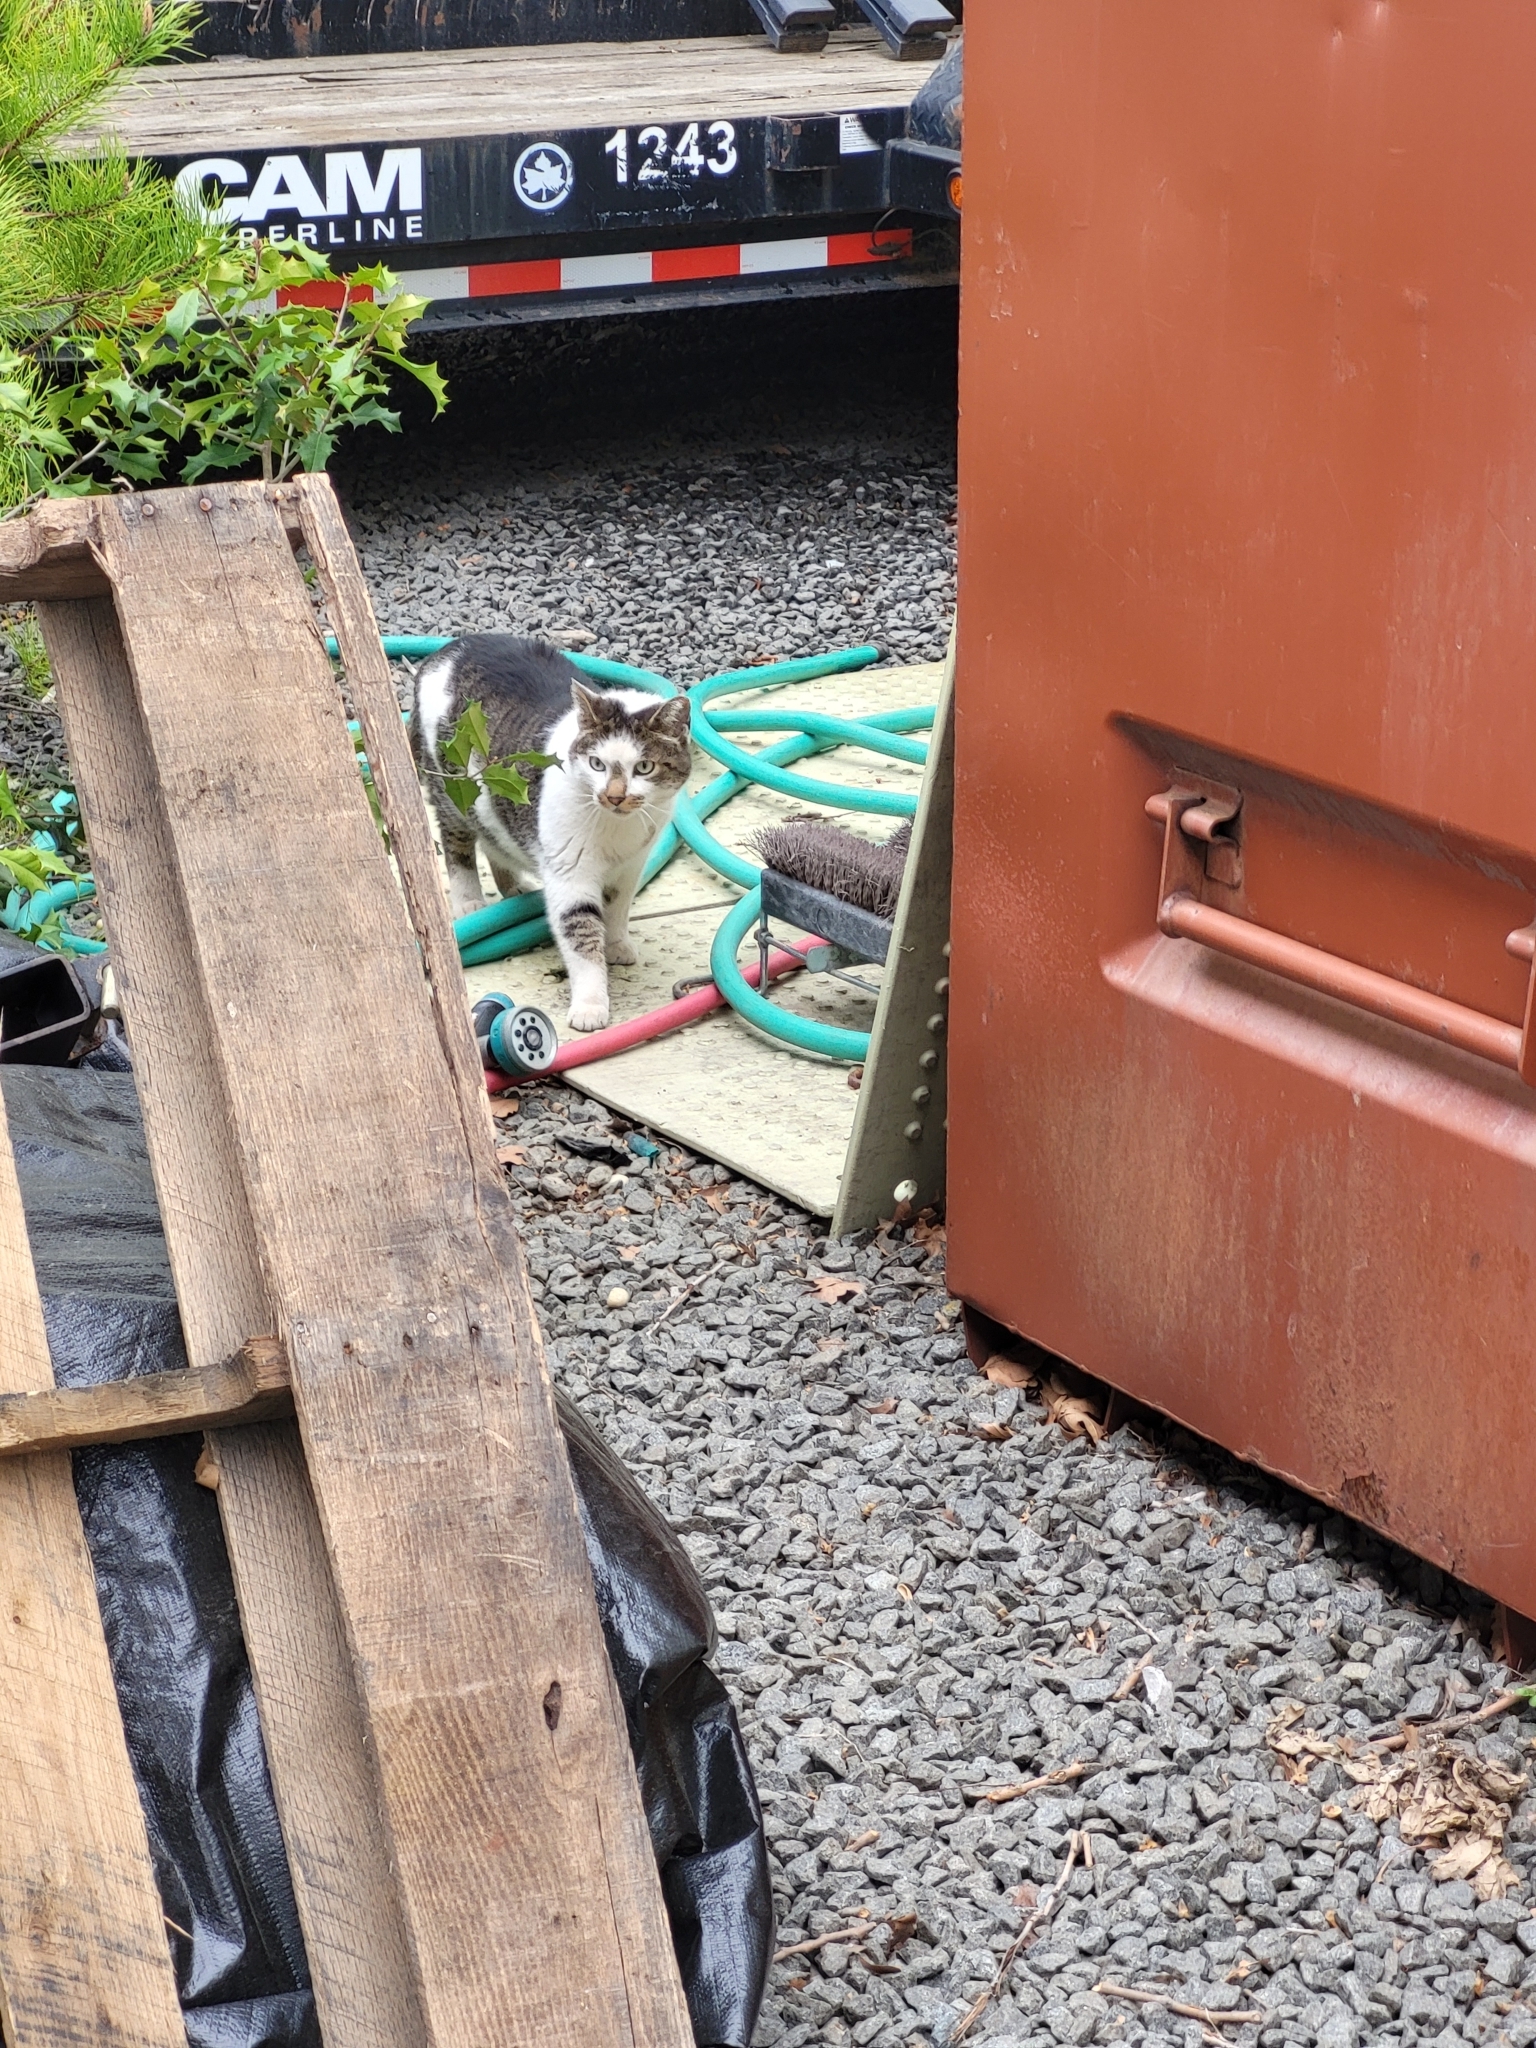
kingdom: Animalia
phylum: Chordata
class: Mammalia
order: Carnivora
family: Felidae
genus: Felis
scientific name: Felis catus
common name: Domestic cat
